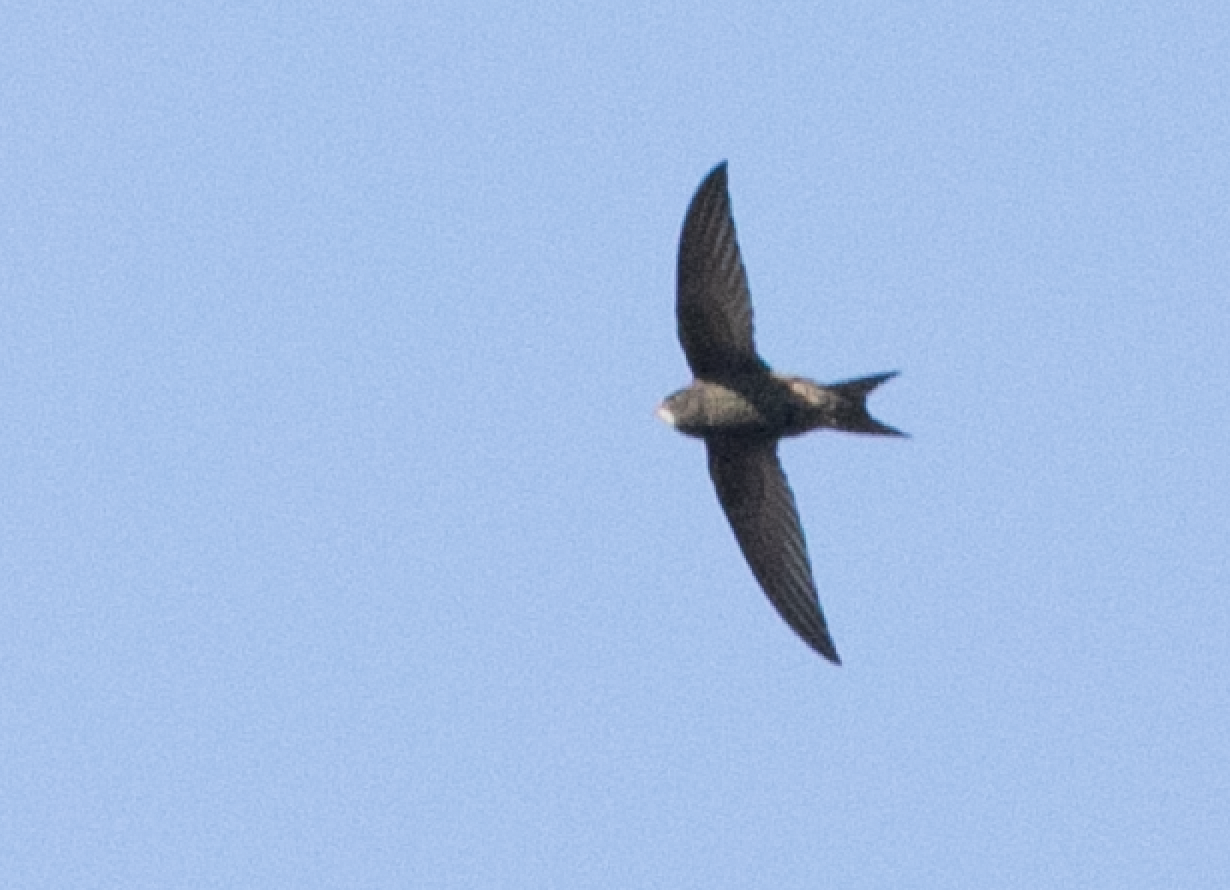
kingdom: Animalia
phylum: Chordata
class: Aves
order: Apodiformes
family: Apodidae
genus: Apus
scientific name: Apus apus
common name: Common swift
